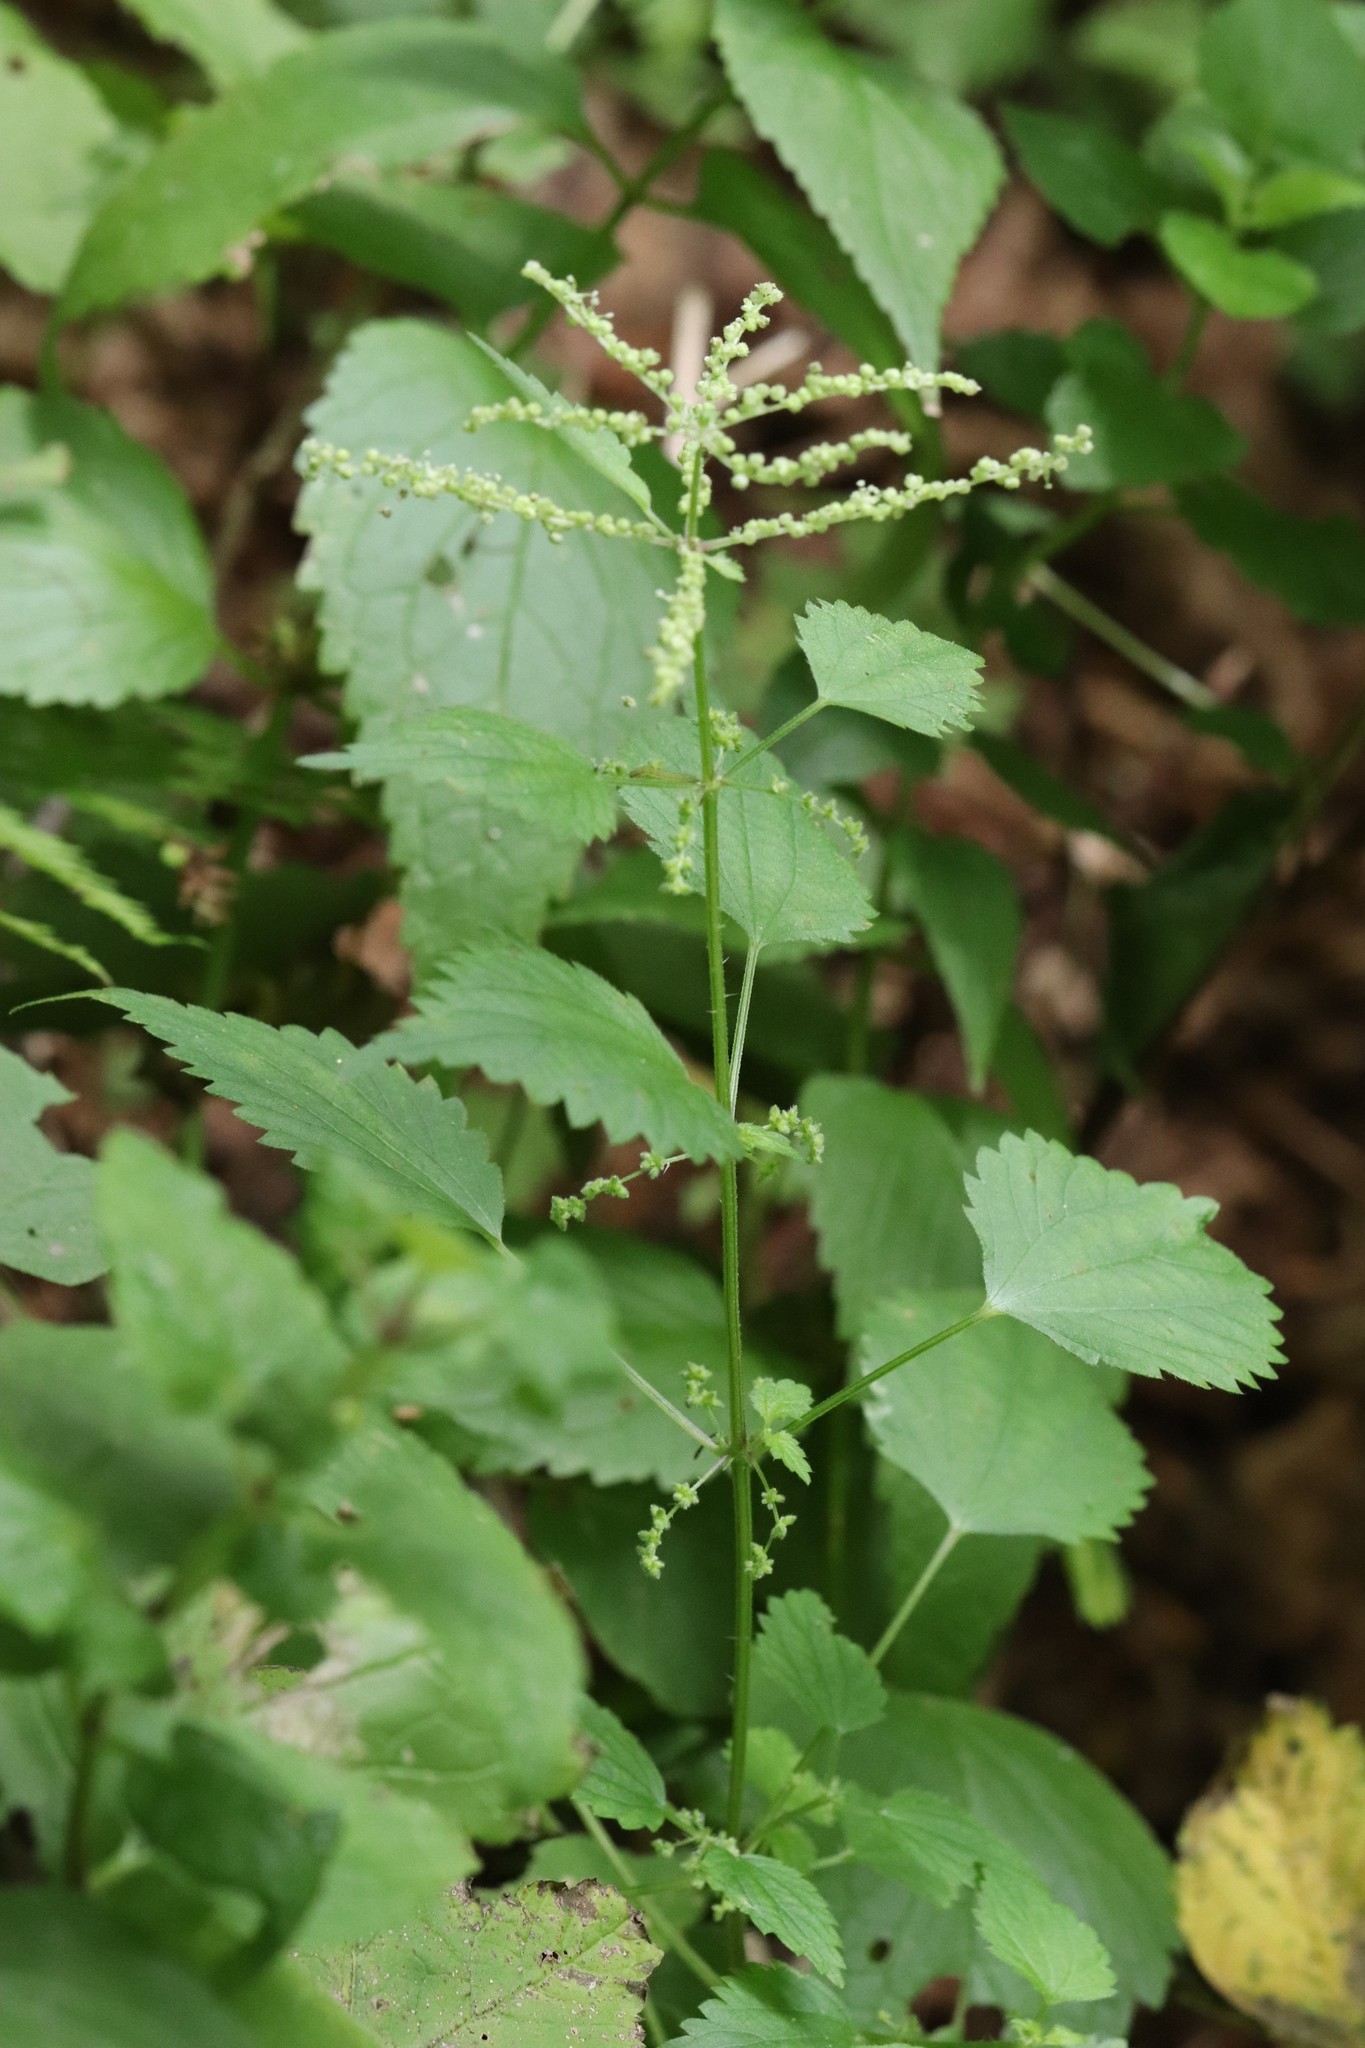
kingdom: Plantae
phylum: Tracheophyta
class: Magnoliopsida
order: Rosales
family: Urticaceae
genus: Urtica
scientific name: Urtica thunbergiana
